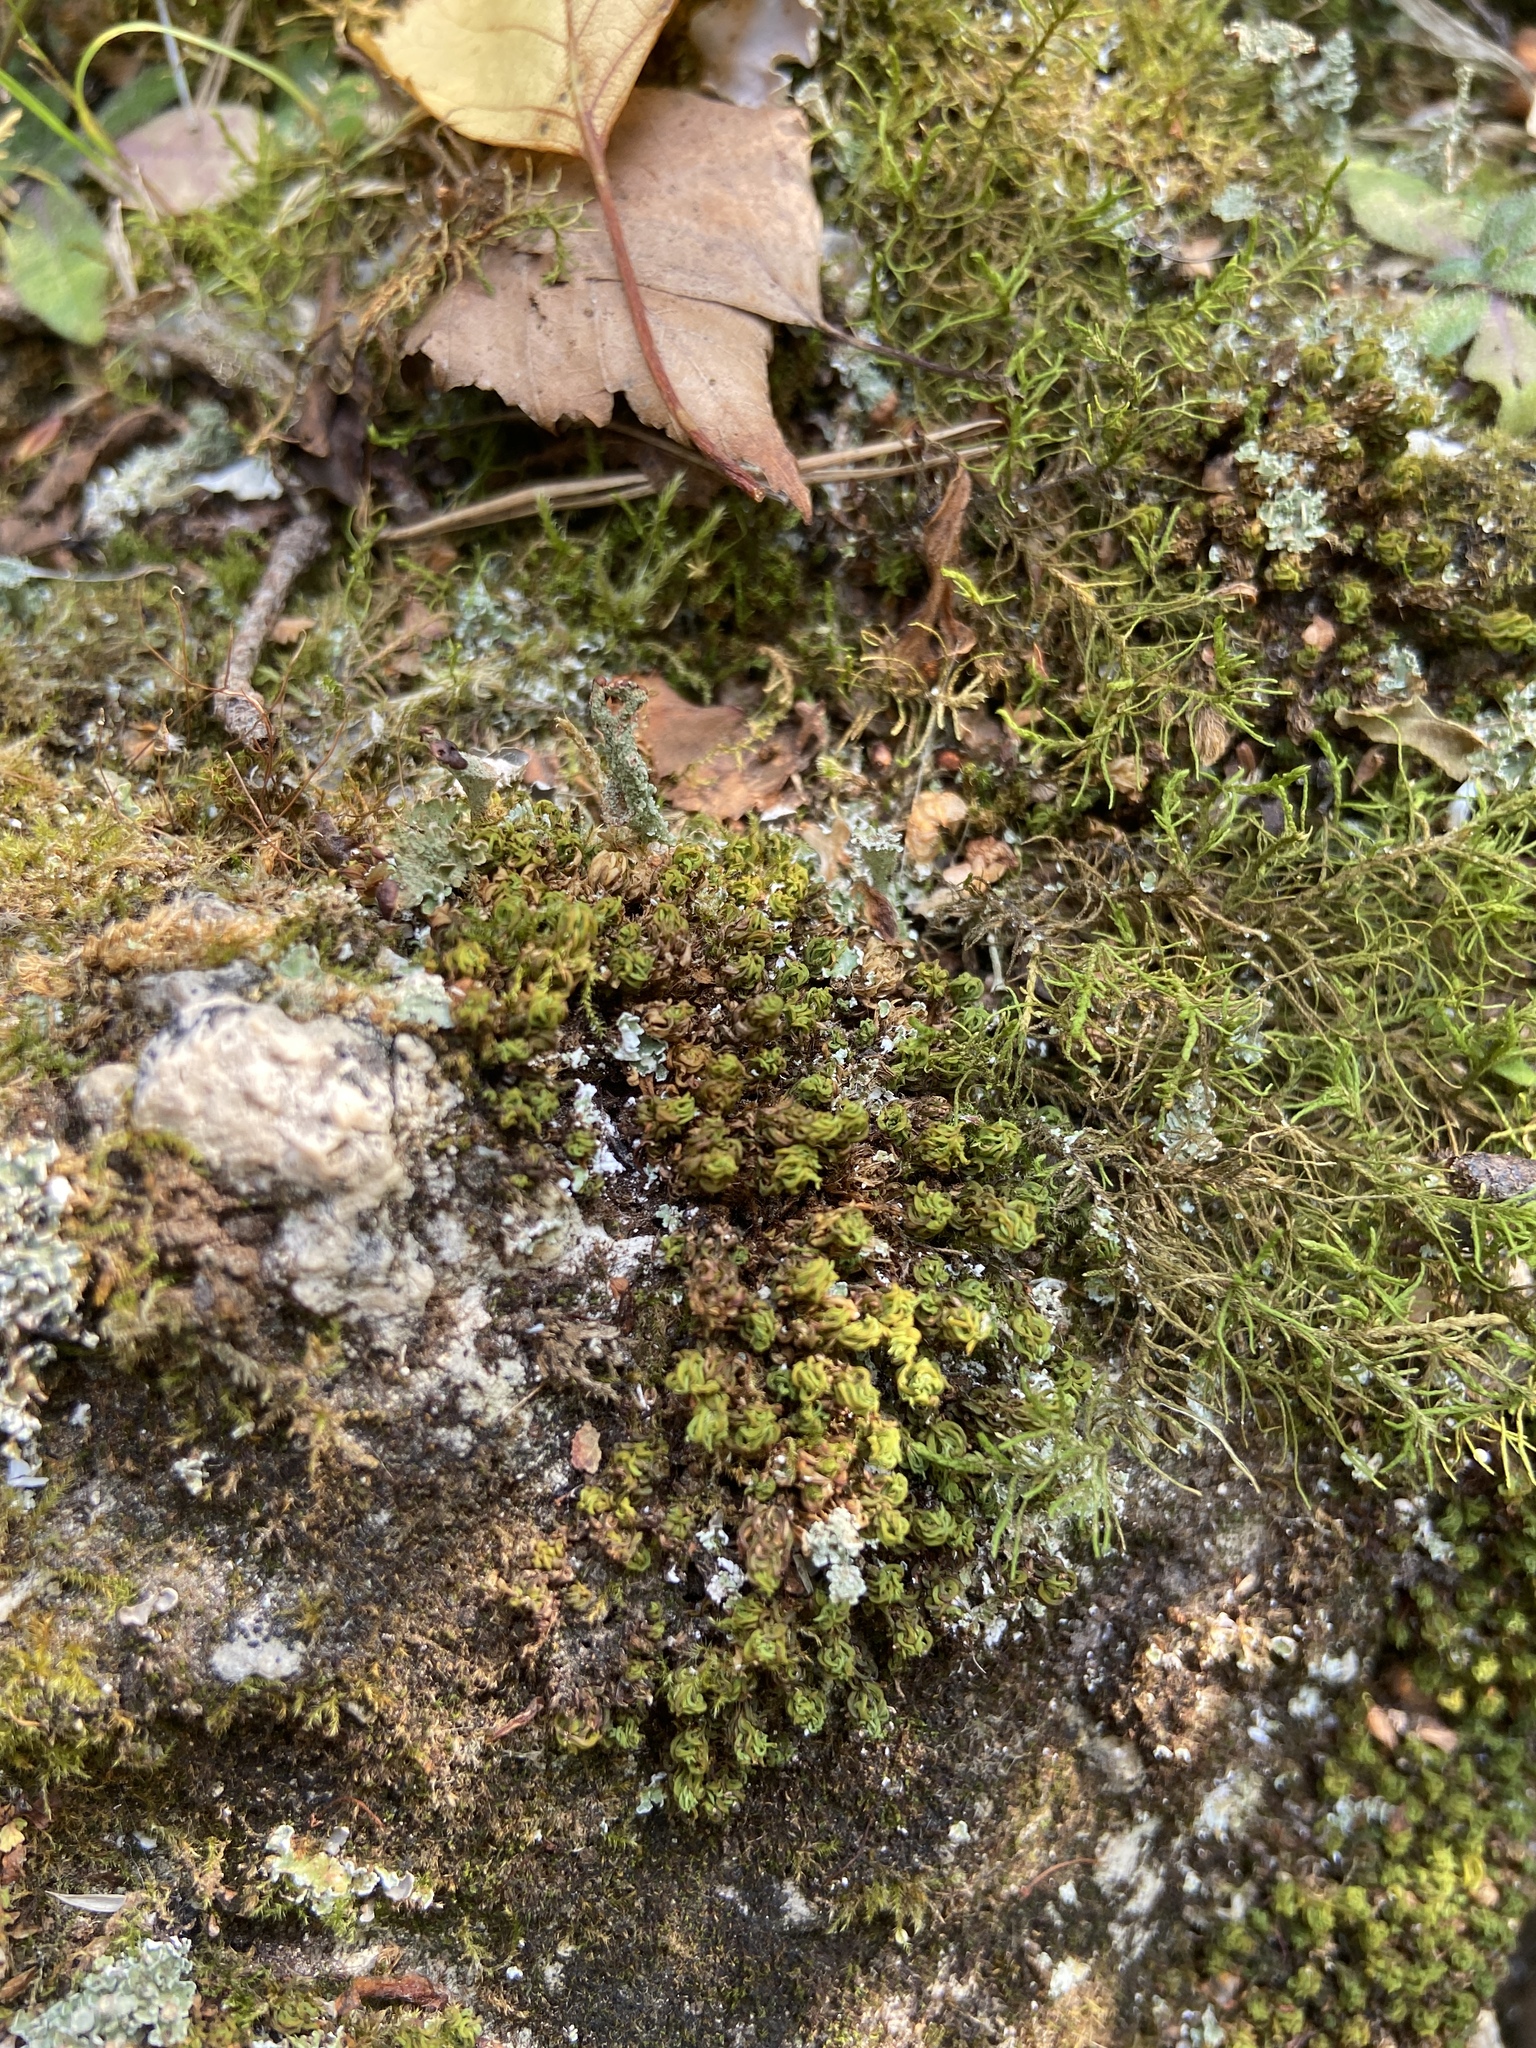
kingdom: Plantae
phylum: Bryophyta
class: Bryopsida
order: Encalyptales
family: Encalyptaceae
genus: Encalypta
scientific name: Encalypta streptocarpa
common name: Spiral extinguisher-moss
